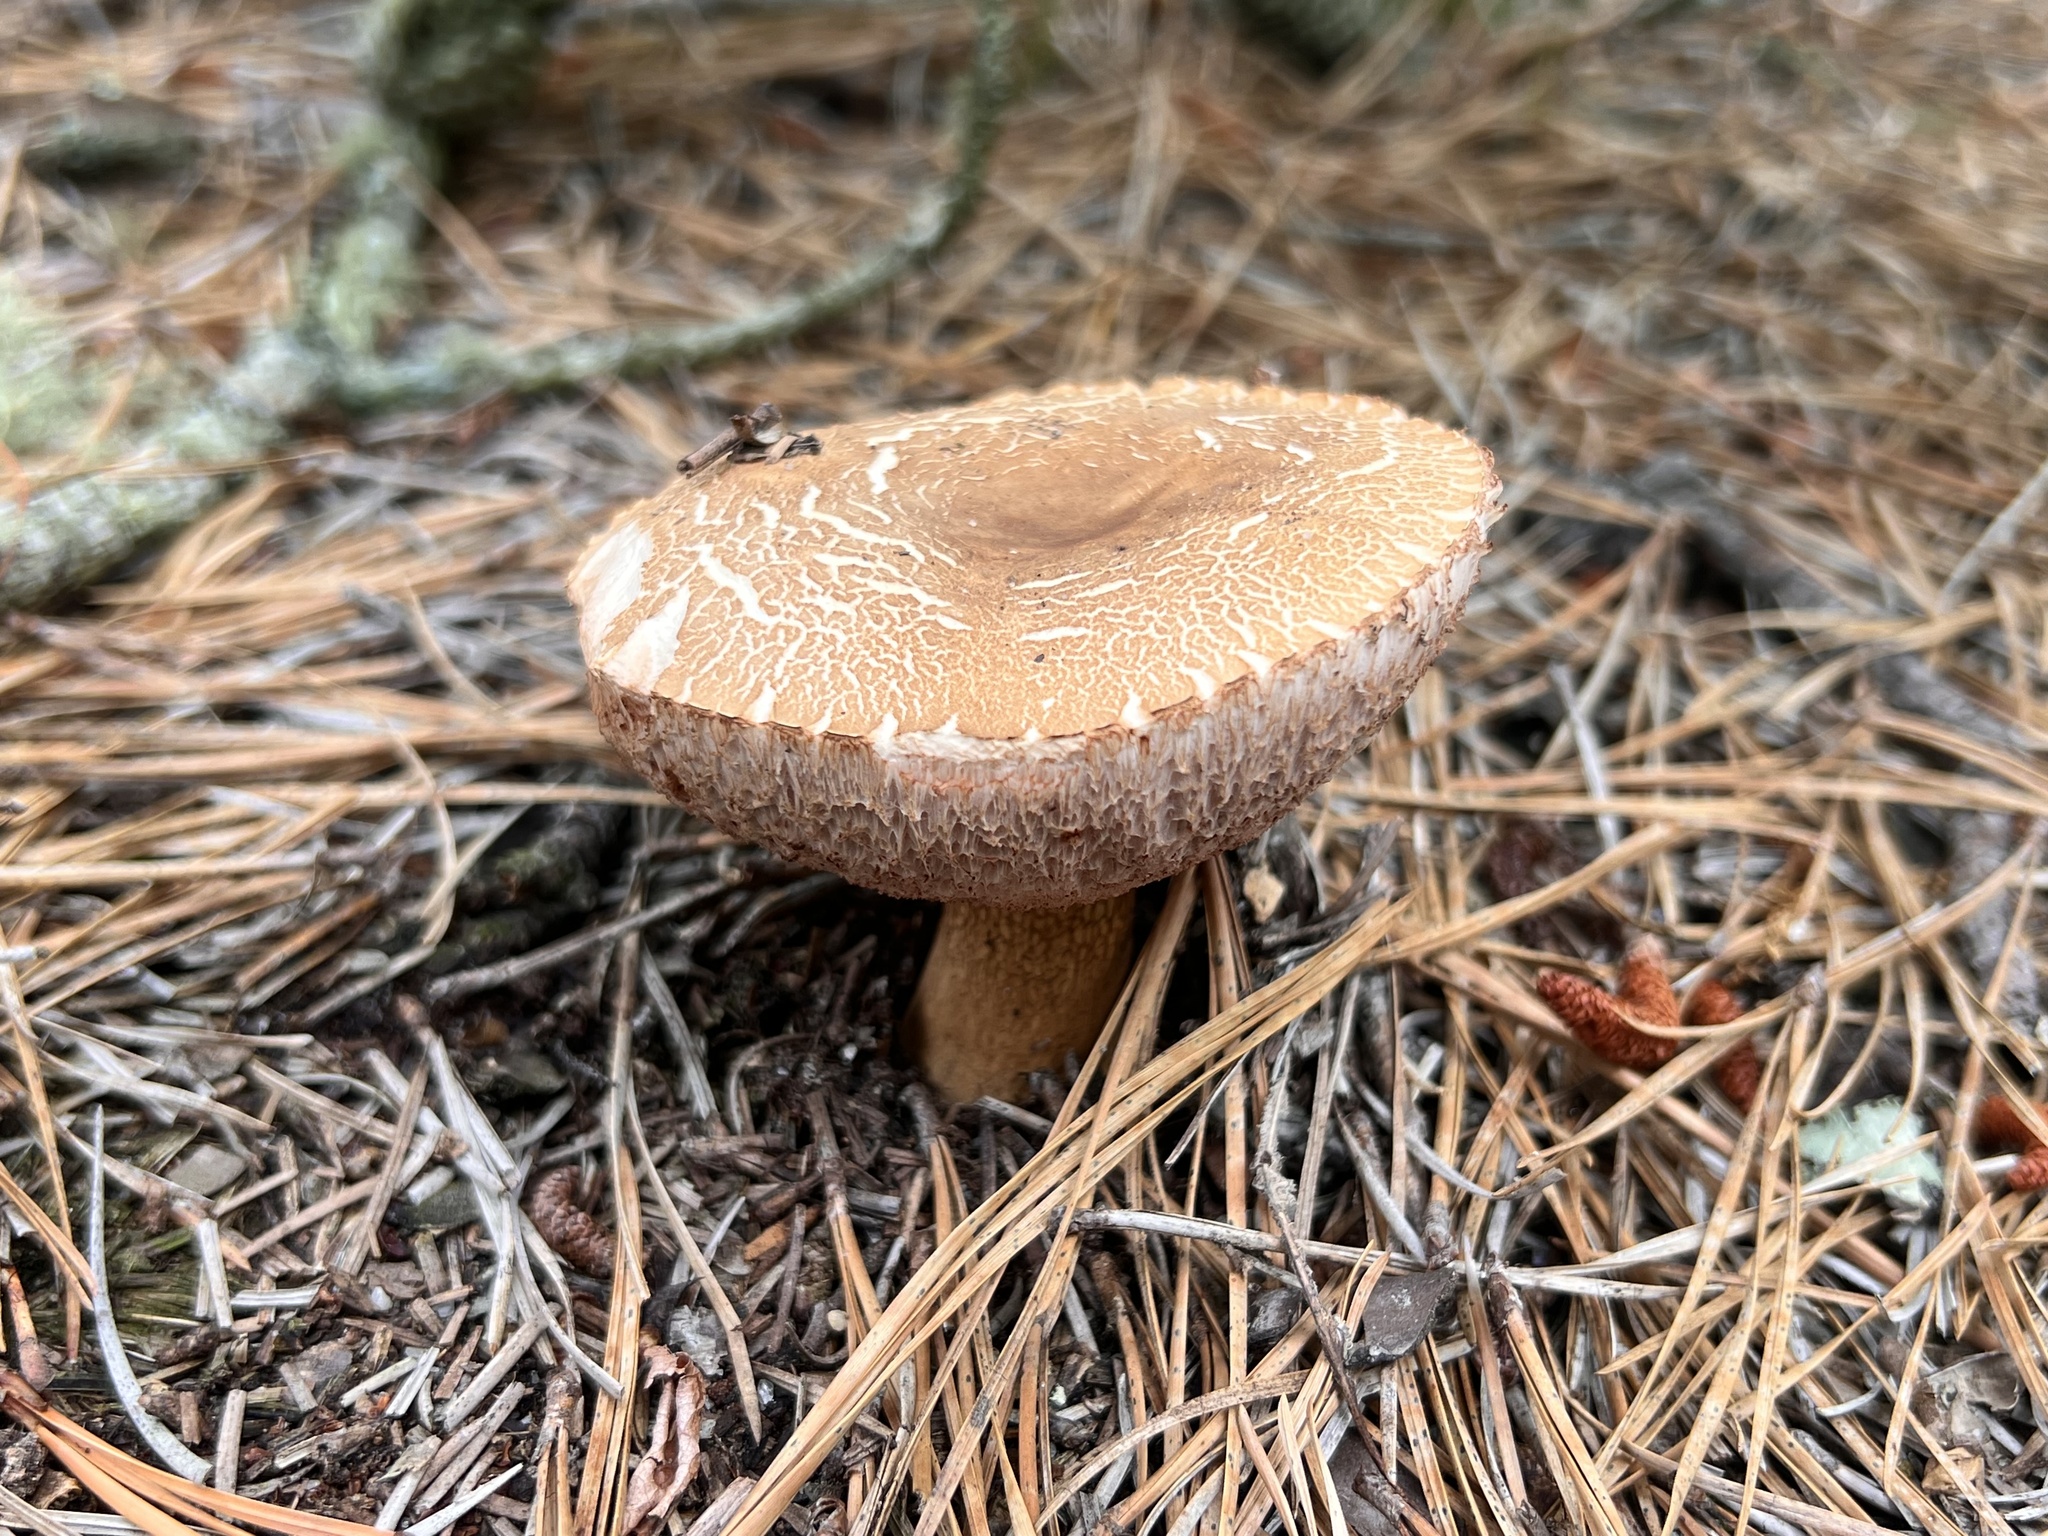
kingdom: Fungi
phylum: Basidiomycota
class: Agaricomycetes
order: Boletales
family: Boletaceae
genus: Tylopilus
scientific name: Tylopilus felleus
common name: Bitter bolete
